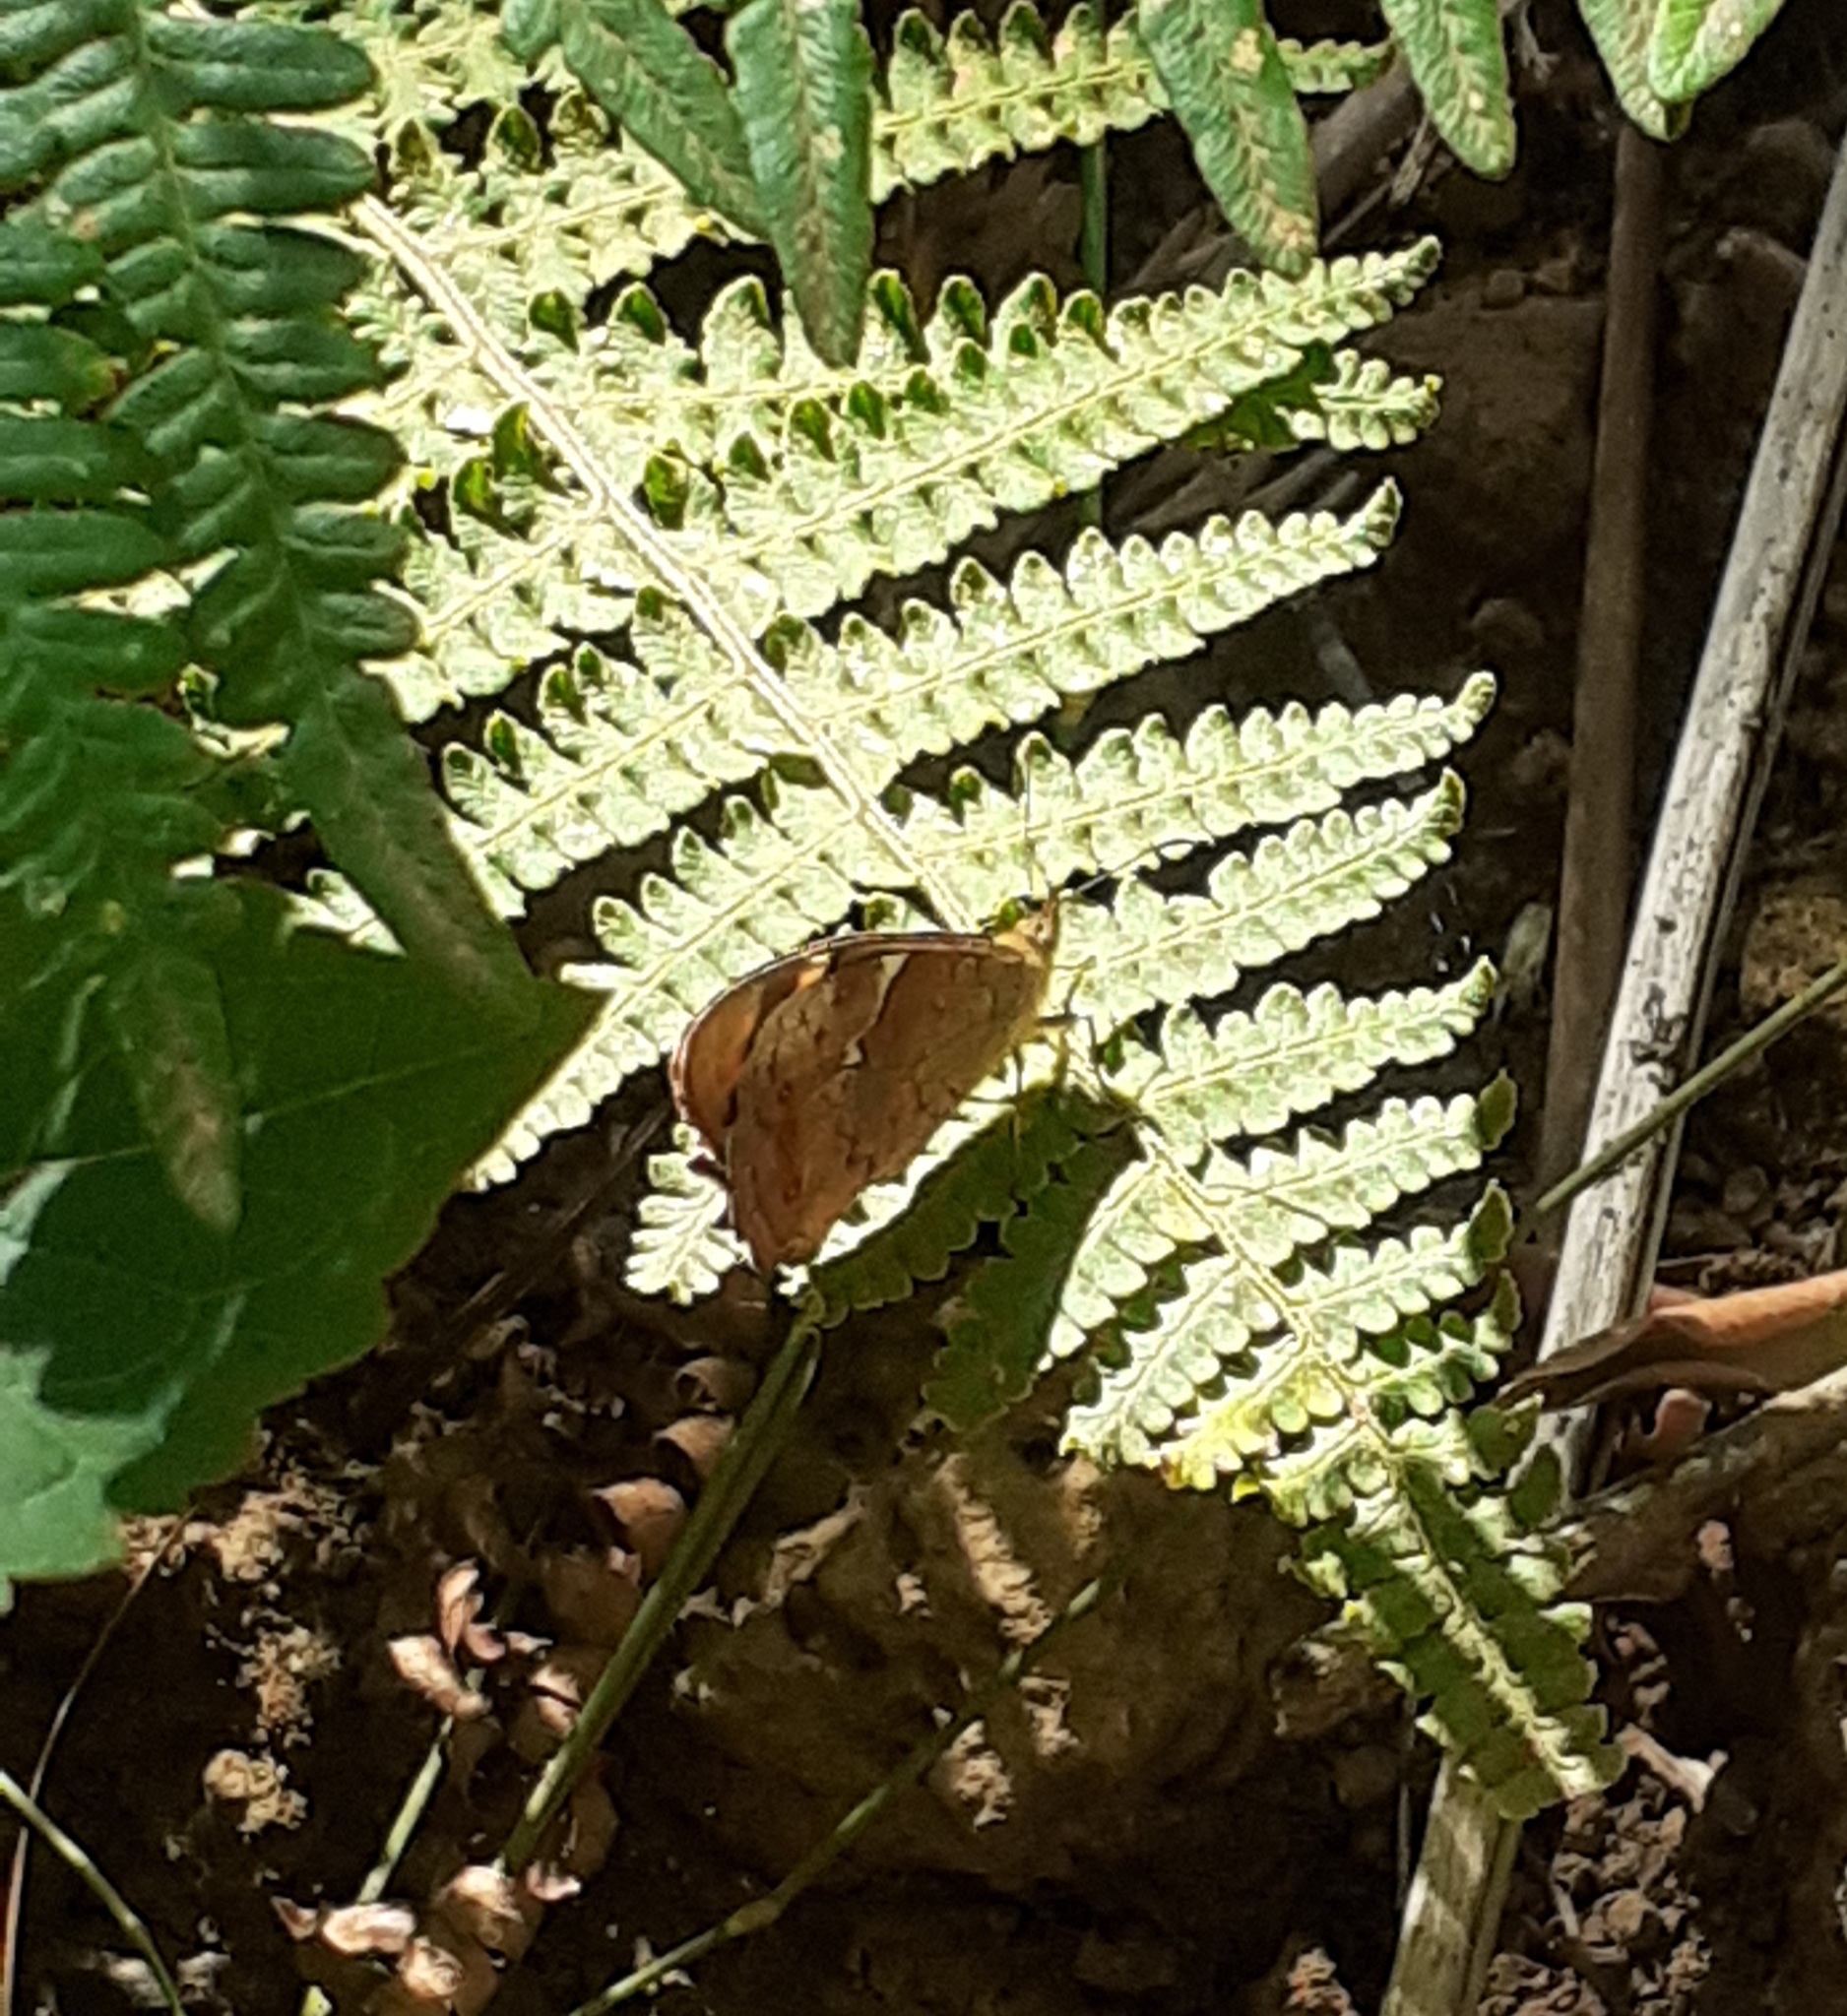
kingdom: Animalia
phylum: Arthropoda
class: Insecta
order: Lepidoptera
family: Nymphalidae
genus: Pararge
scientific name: Pararge aegeria
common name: Speckled wood
